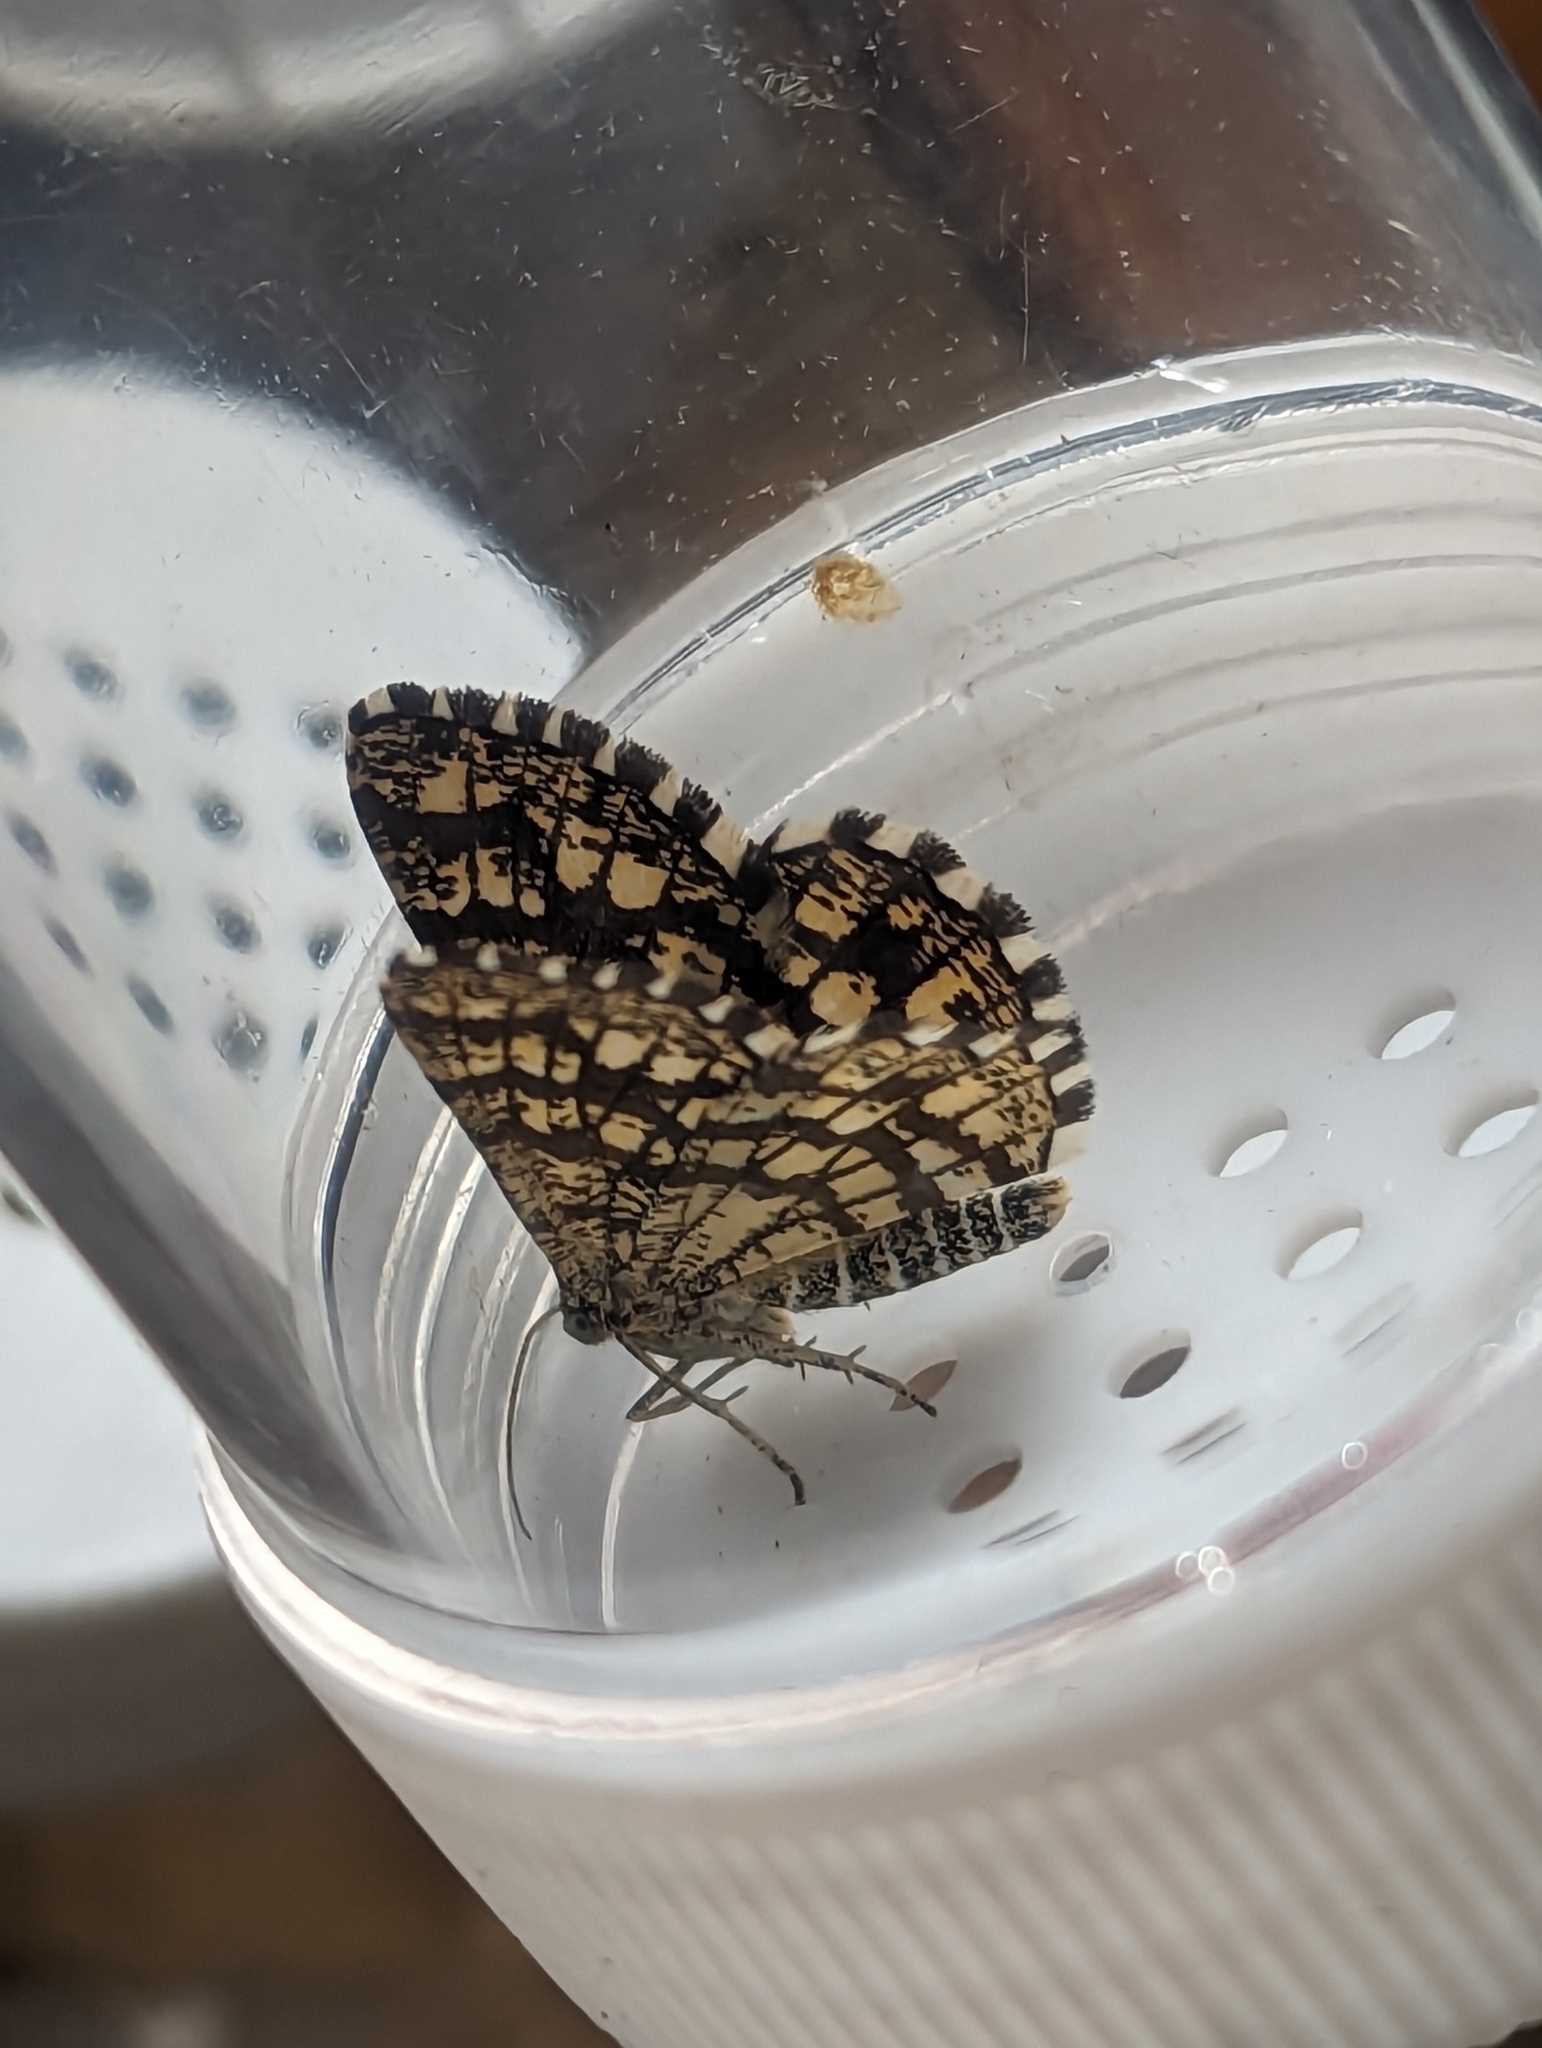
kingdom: Animalia
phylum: Arthropoda
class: Insecta
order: Lepidoptera
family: Geometridae
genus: Chiasmia
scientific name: Chiasmia clathrata
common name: Latticed heath
